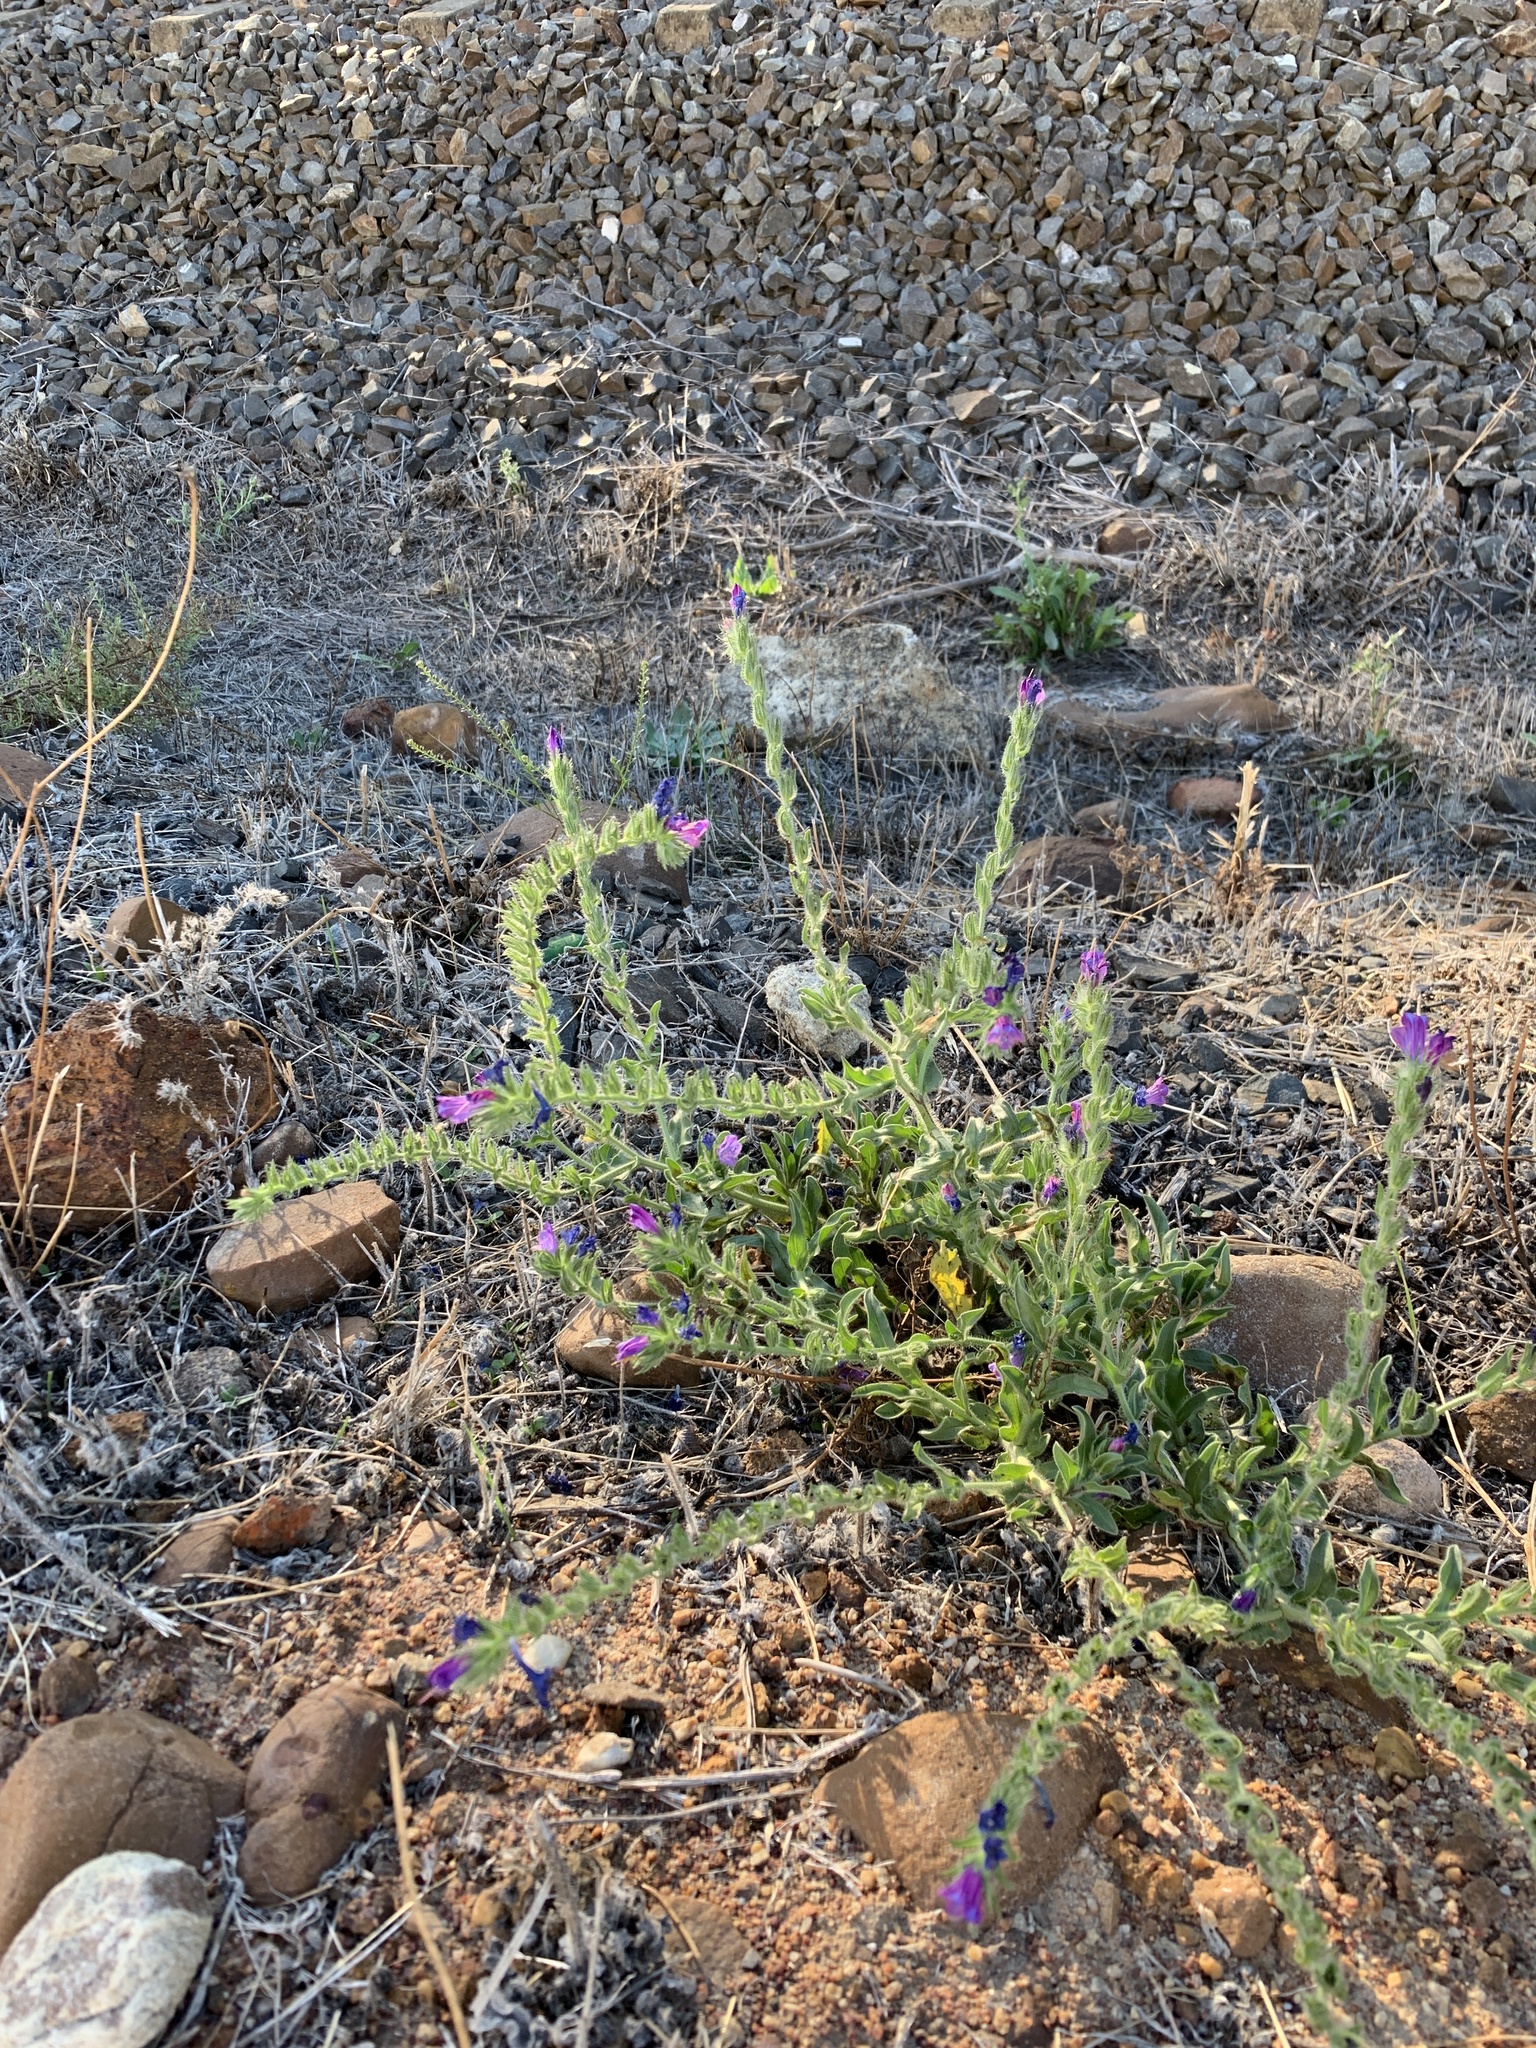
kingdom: Plantae
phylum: Tracheophyta
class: Magnoliopsida
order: Boraginales
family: Boraginaceae
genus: Echium
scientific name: Echium plantagineum
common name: Purple viper's-bugloss
